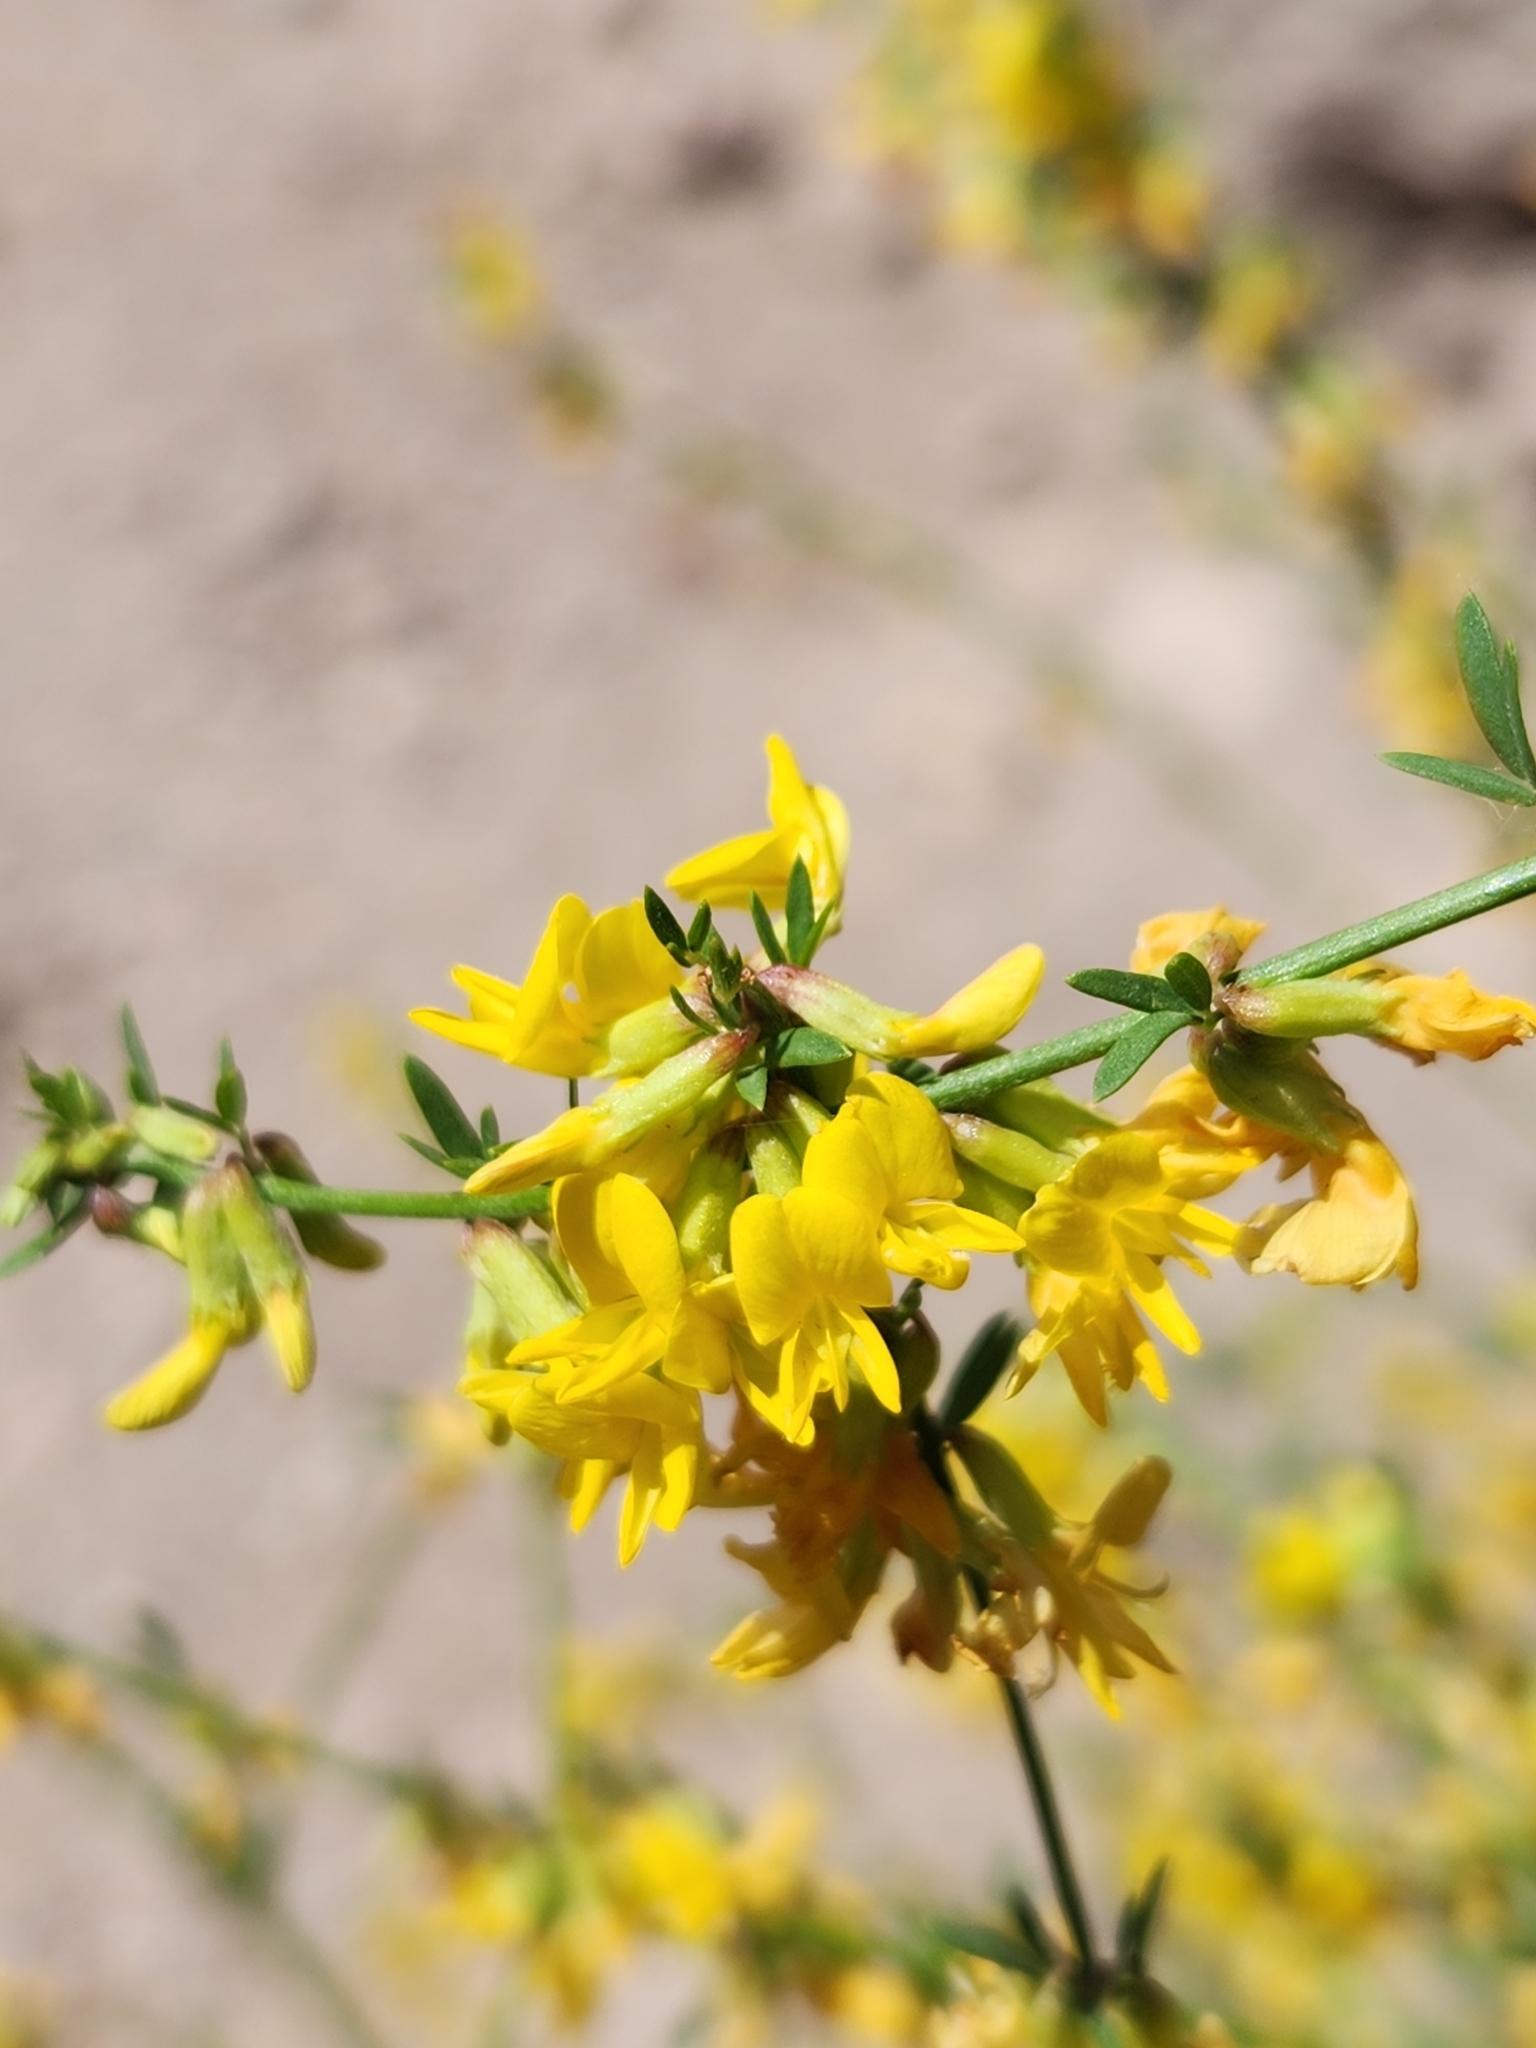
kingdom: Plantae
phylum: Tracheophyta
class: Magnoliopsida
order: Fabales
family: Fabaceae
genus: Acmispon
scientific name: Acmispon glaber
